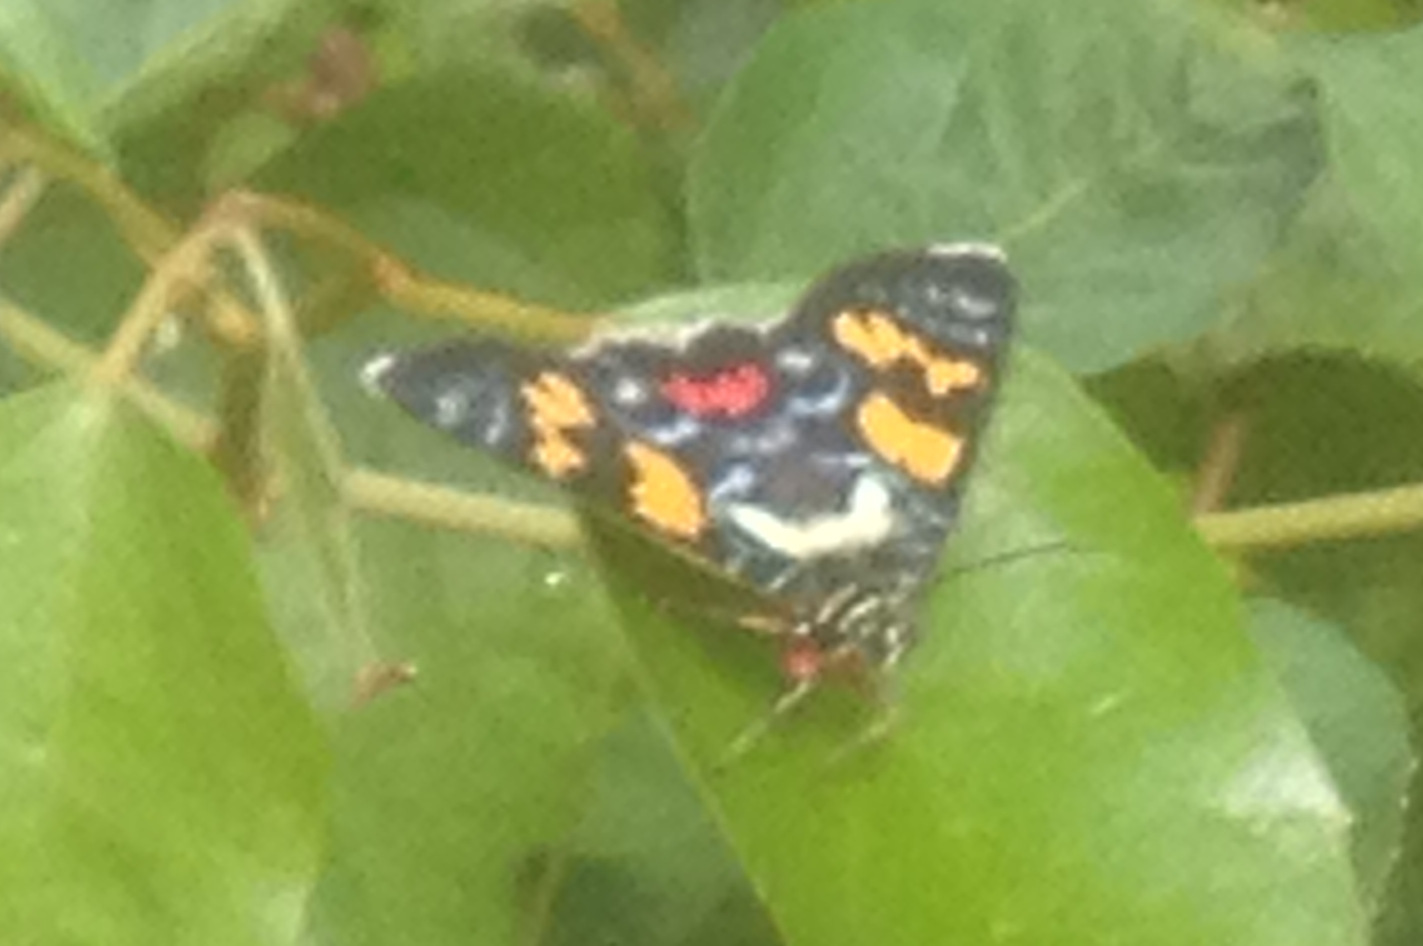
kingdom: Animalia
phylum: Arthropoda
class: Insecta
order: Lepidoptera
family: Noctuidae
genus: Agarista
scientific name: Agarista agricola
